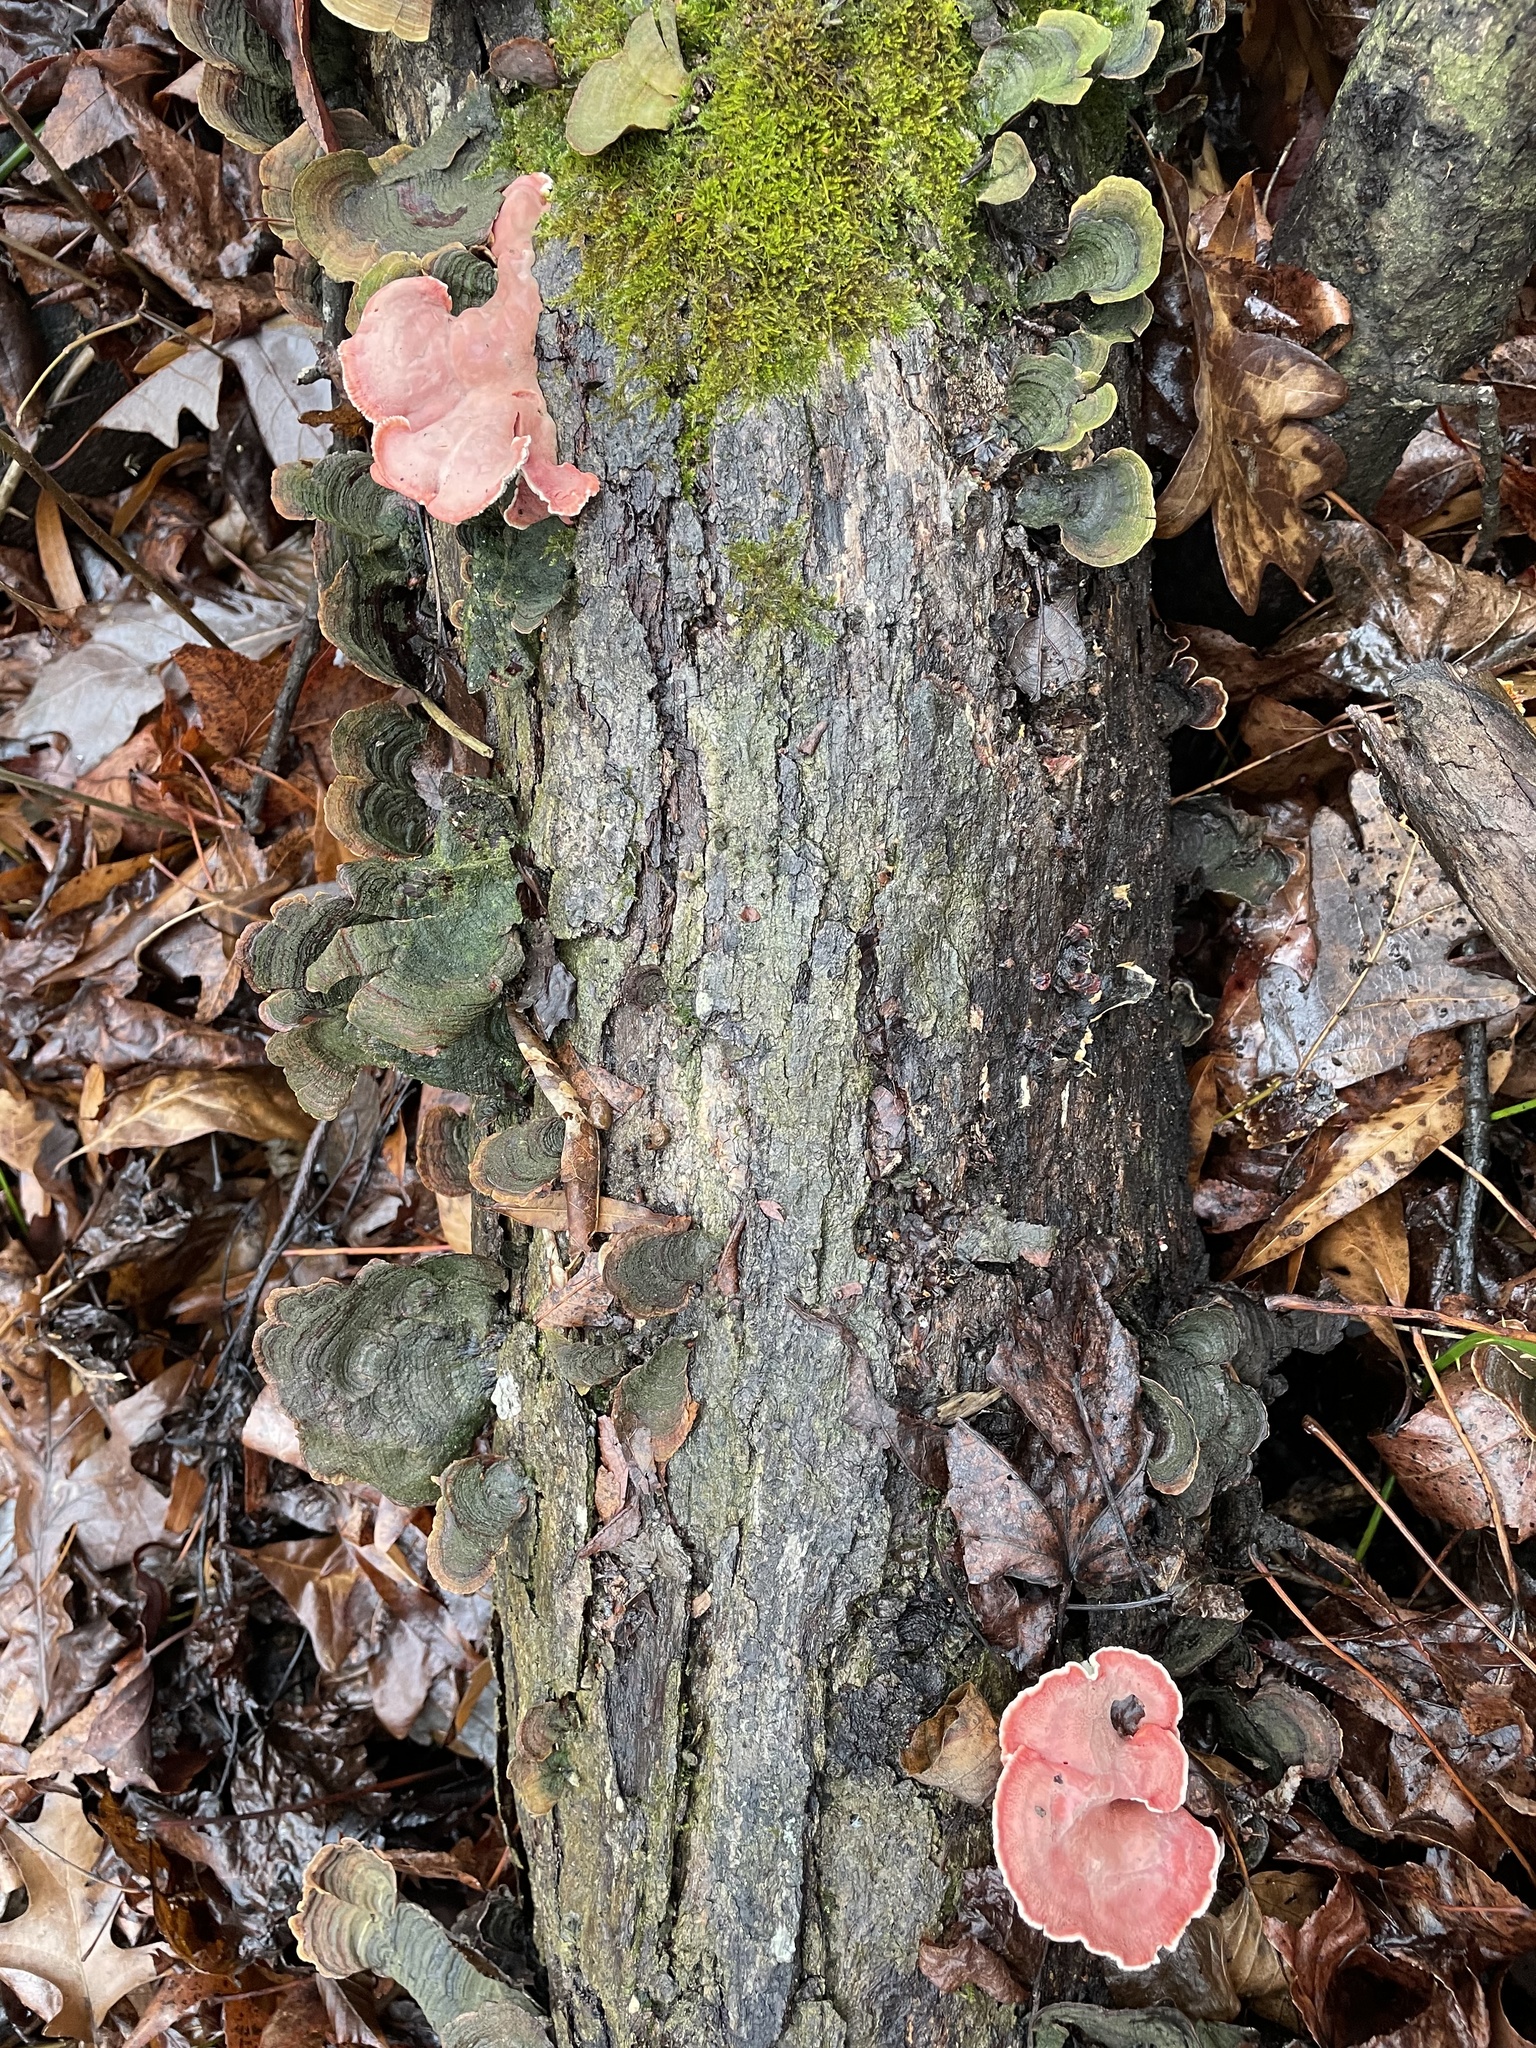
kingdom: Fungi
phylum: Basidiomycota
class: Agaricomycetes
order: Polyporales
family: Irpicaceae
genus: Byssomerulius
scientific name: Byssomerulius incarnatus
